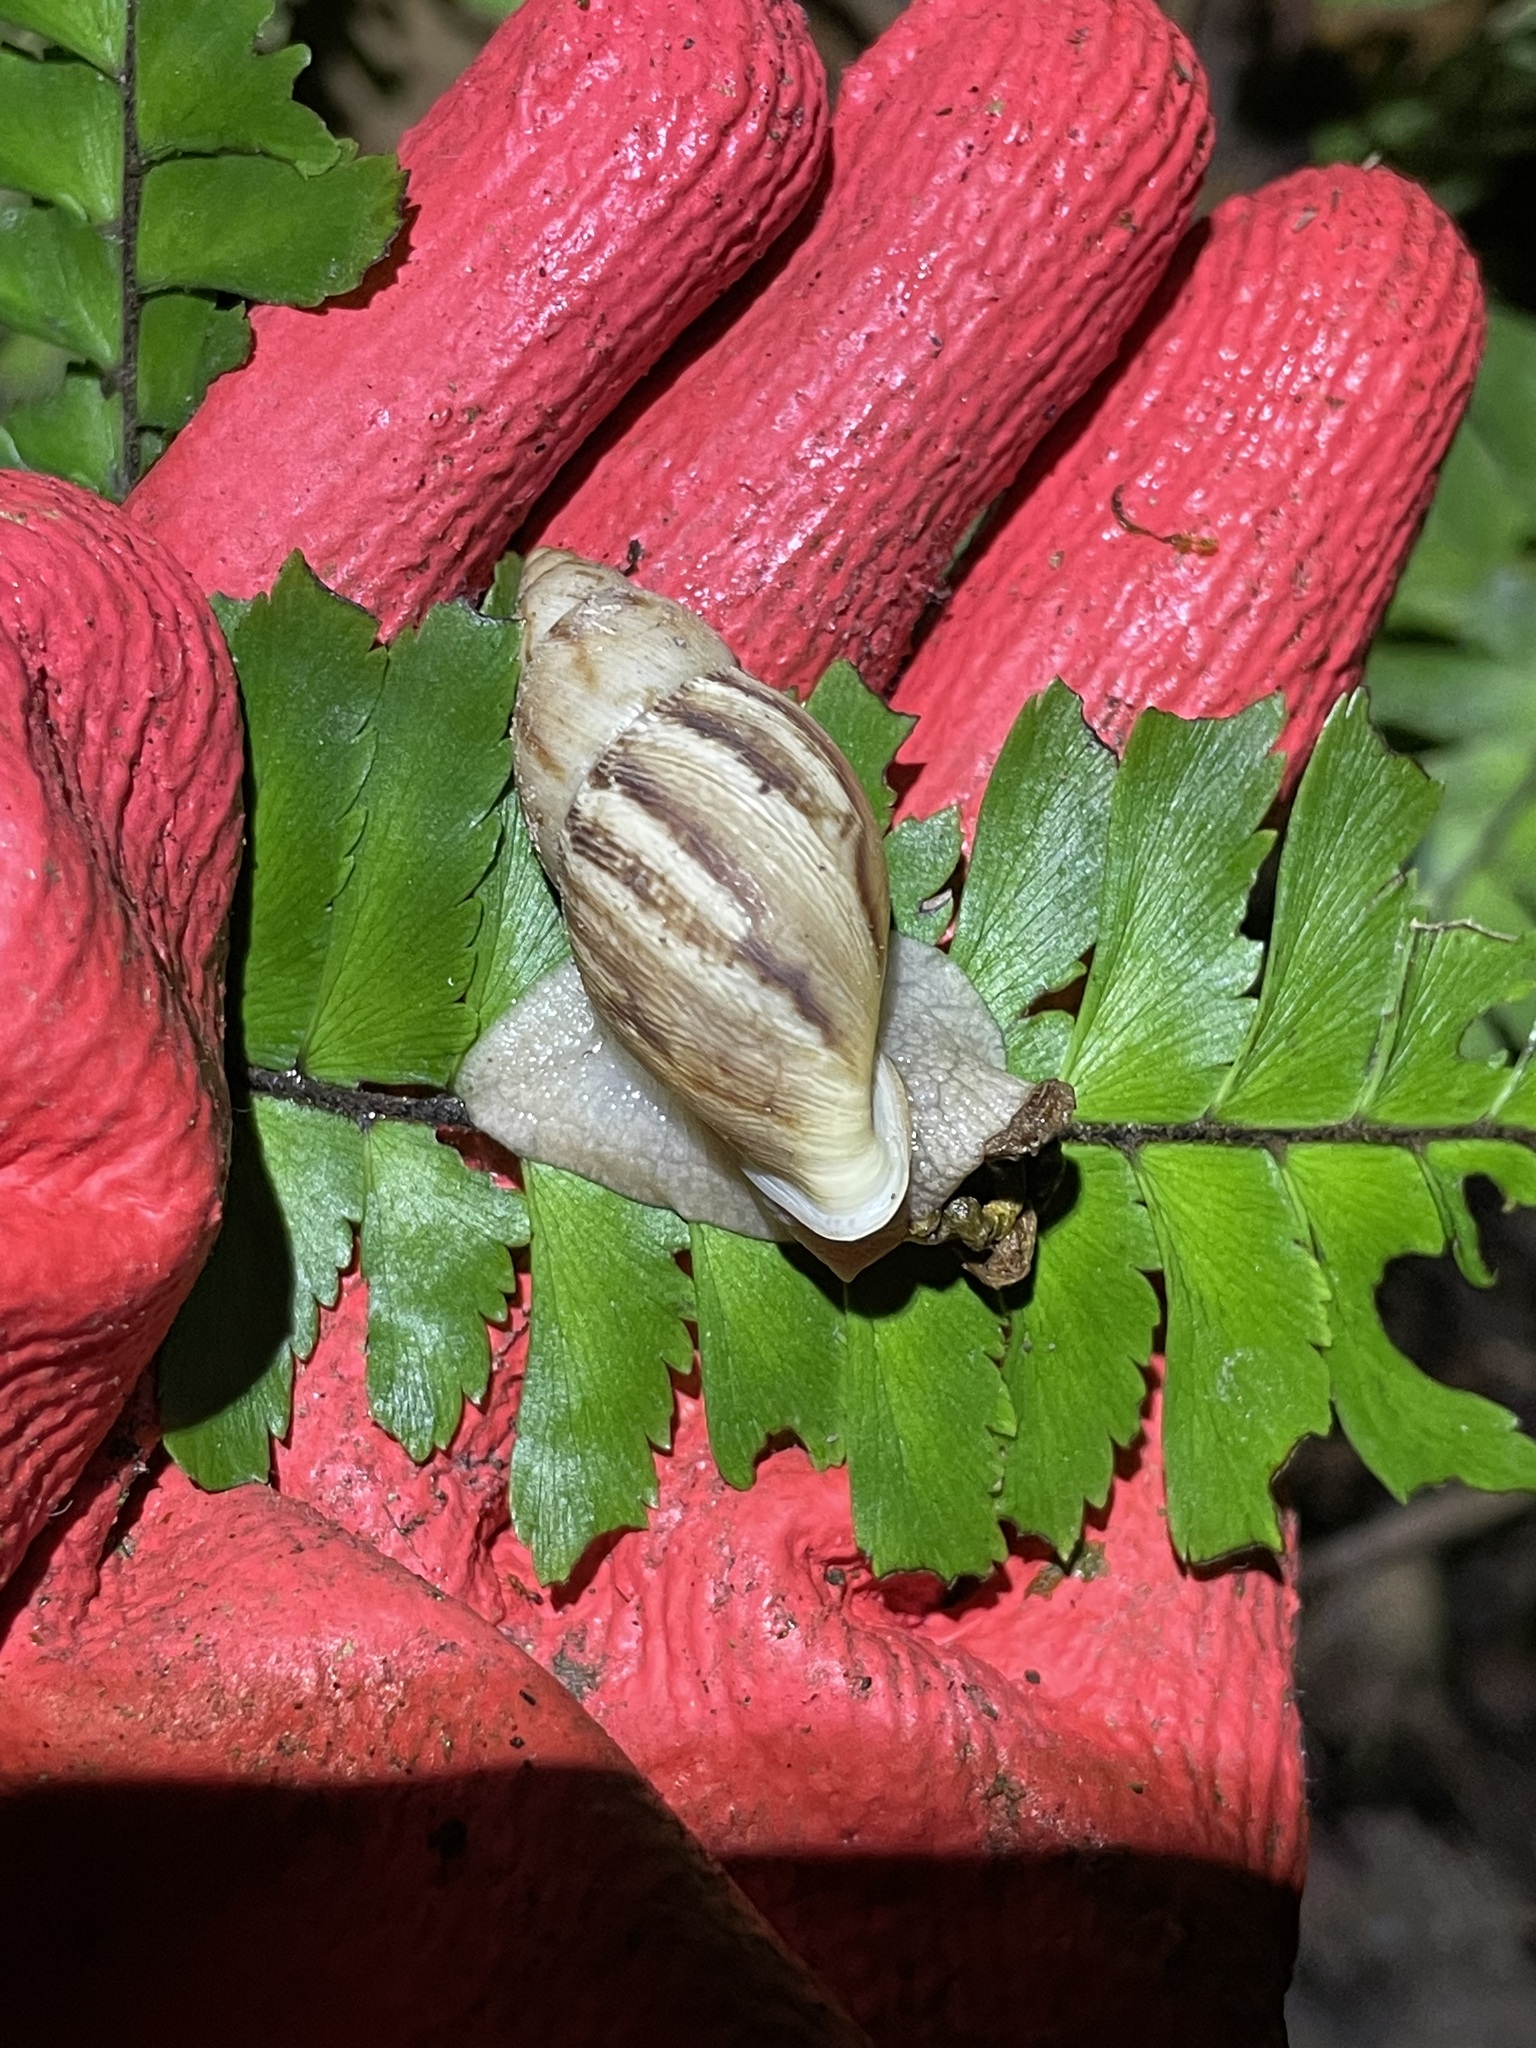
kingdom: Animalia
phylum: Mollusca
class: Gastropoda
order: Stylommatophora
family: Amphibulimidae
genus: Plekocheilus
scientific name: Plekocheilus glaber
